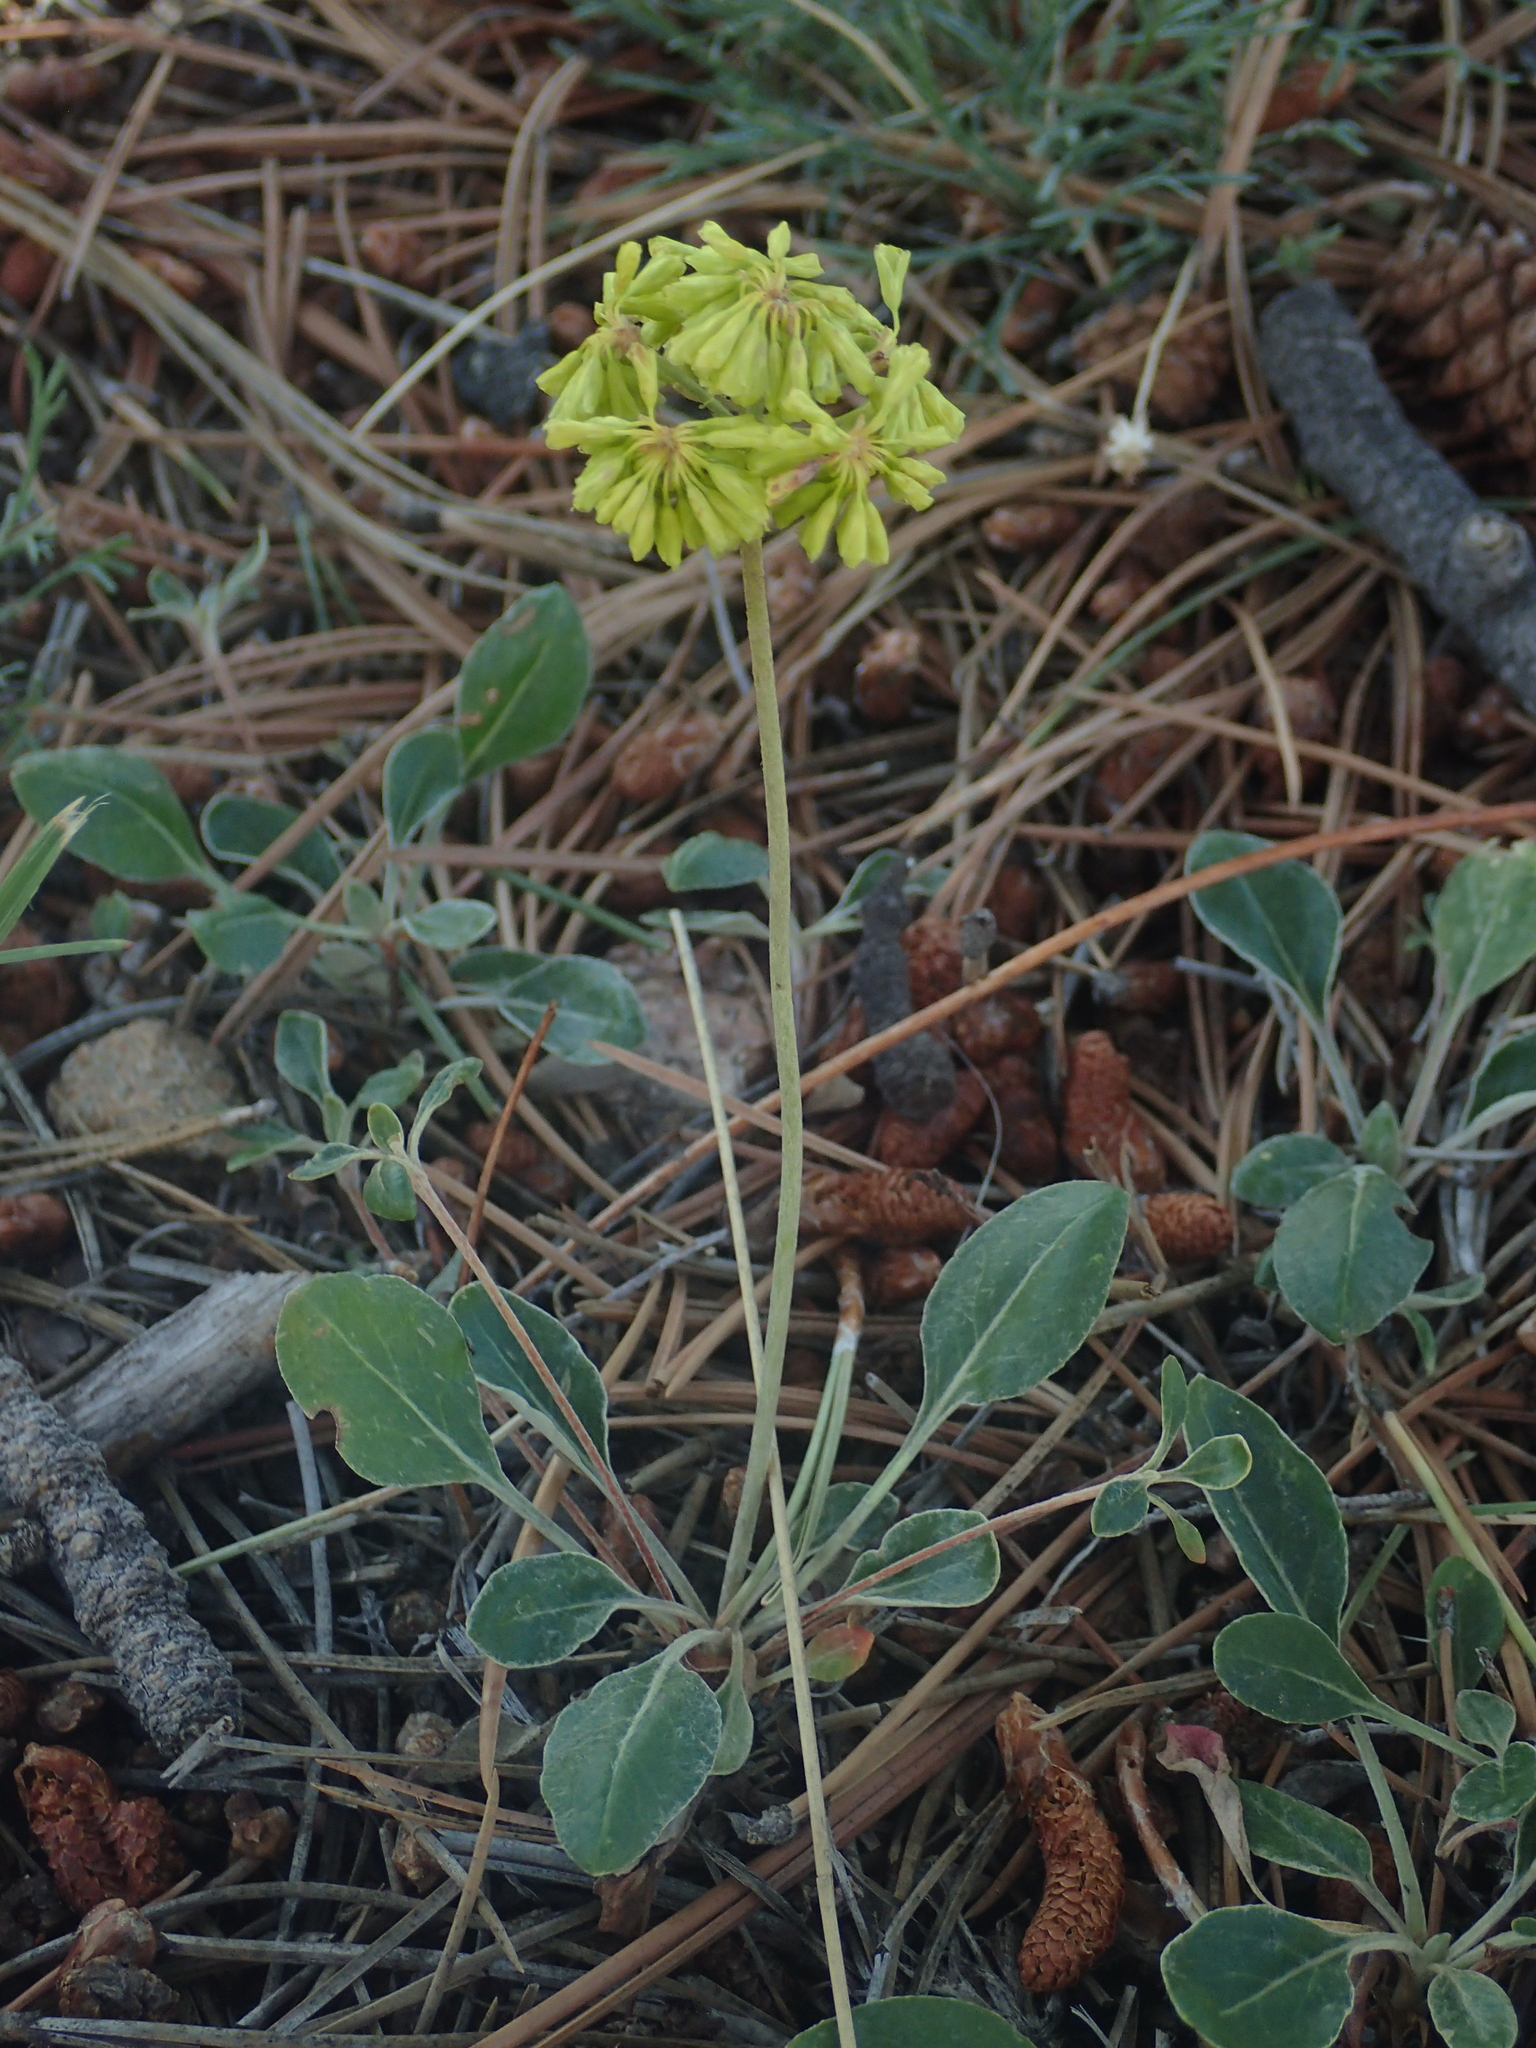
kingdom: Plantae
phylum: Tracheophyta
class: Magnoliopsida
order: Caryophyllales
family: Polygonaceae
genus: Eriogonum
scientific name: Eriogonum umbellatum
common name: Sulfur-buckwheat
